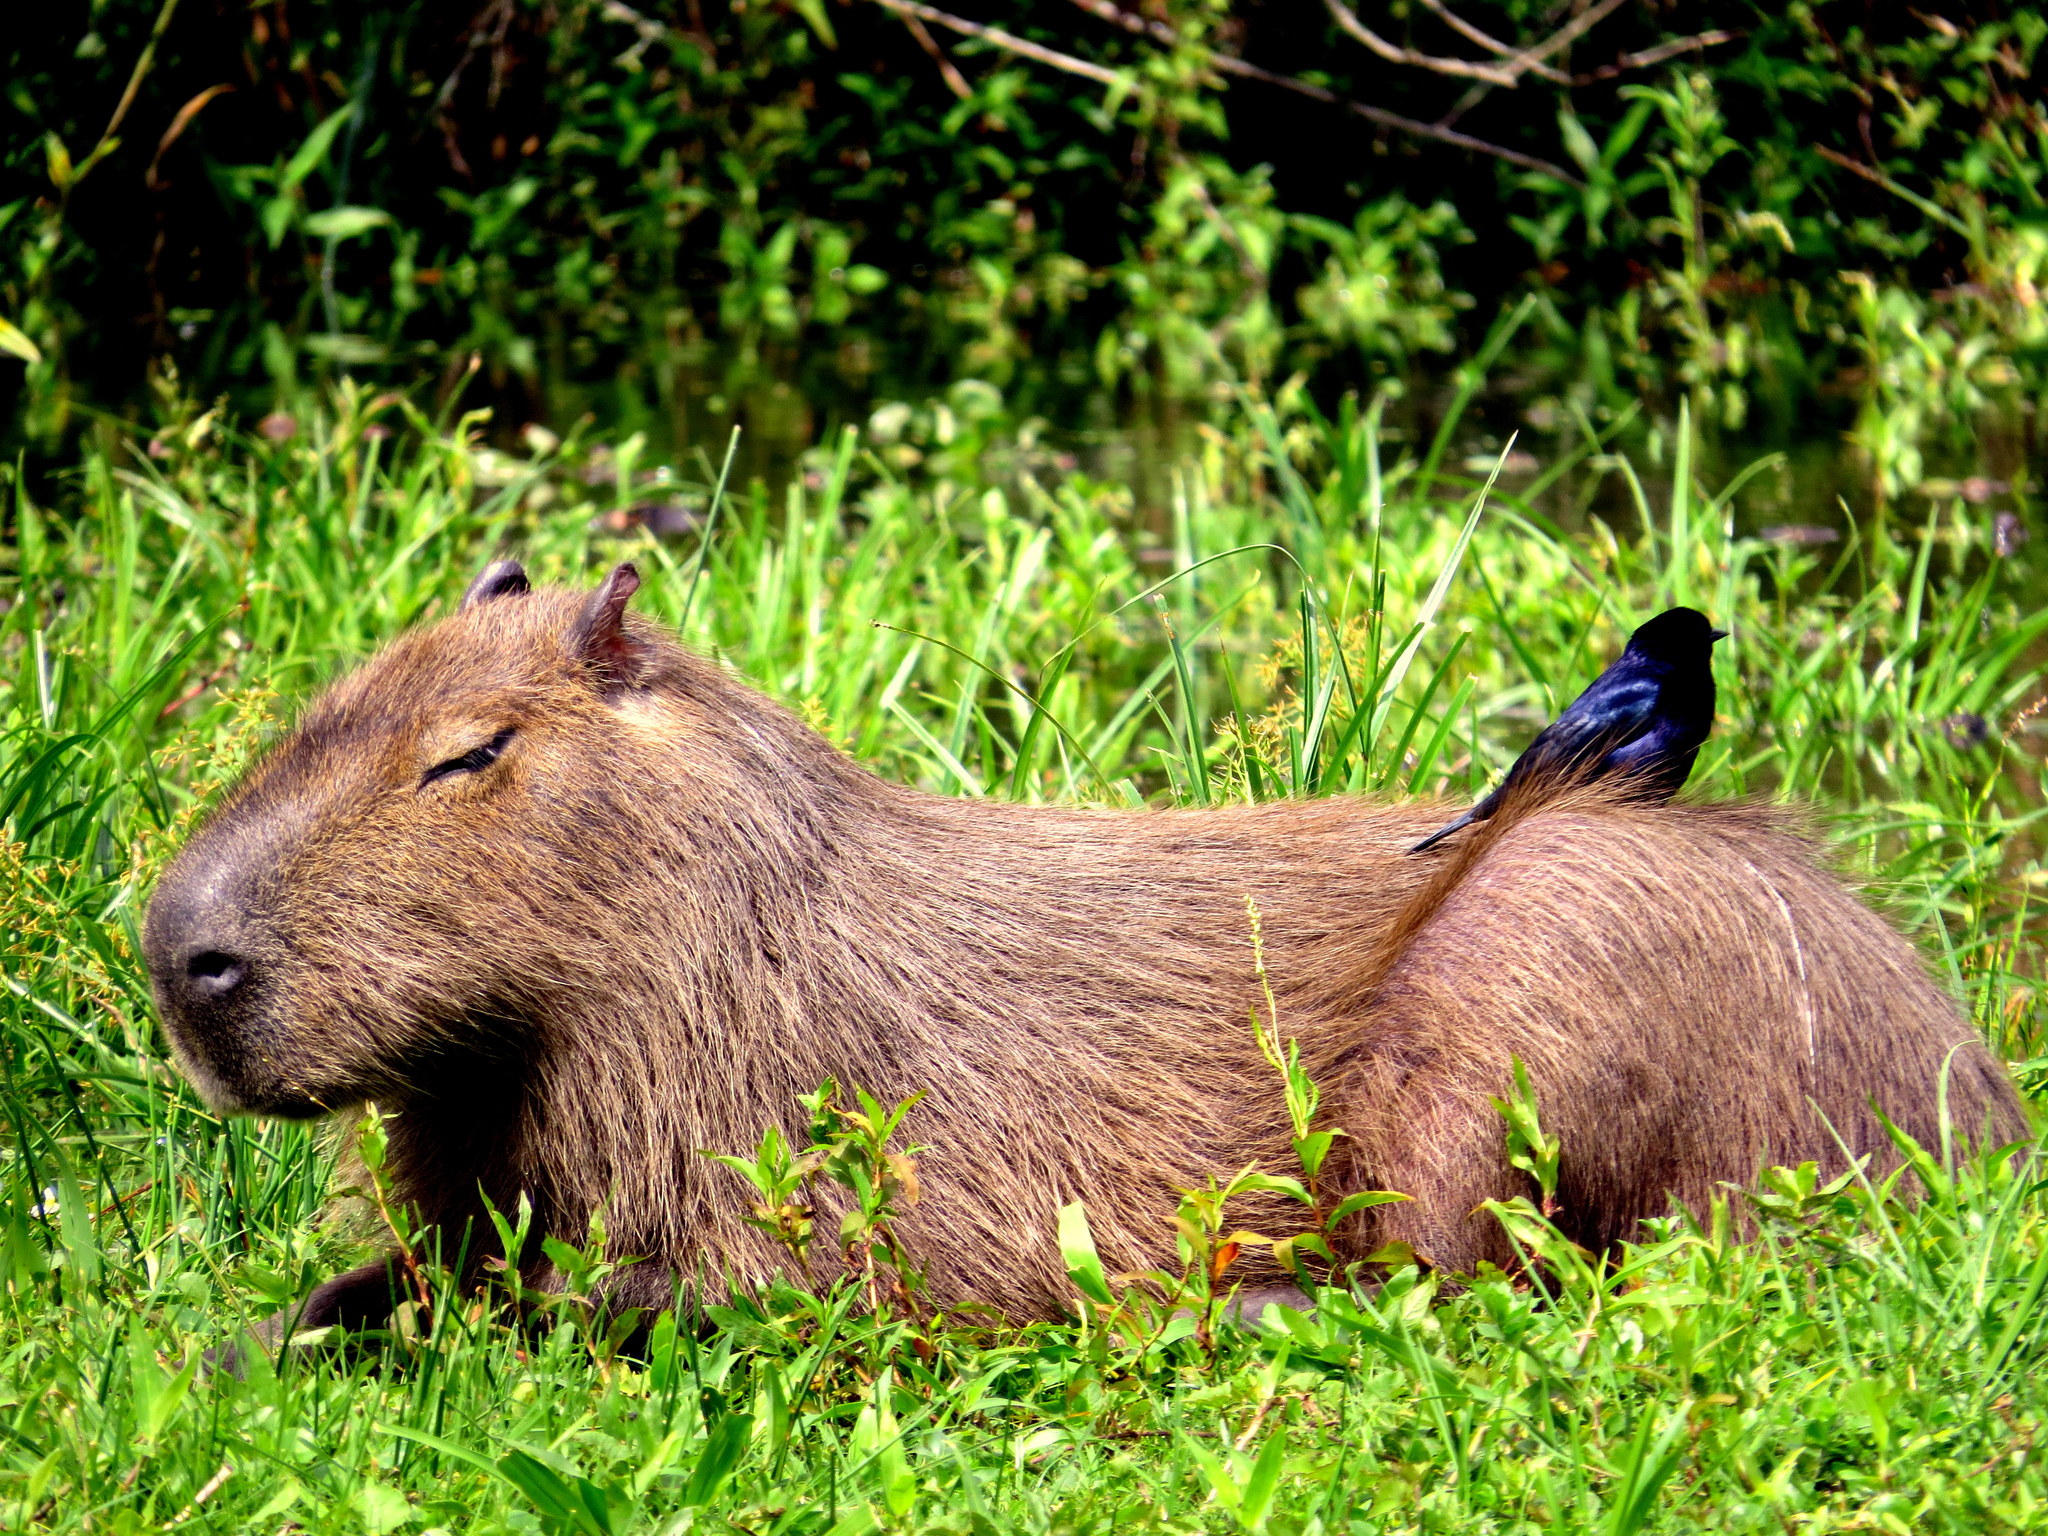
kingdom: Animalia
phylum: Chordata
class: Mammalia
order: Rodentia
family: Caviidae
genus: Hydrochoerus
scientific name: Hydrochoerus hydrochaeris
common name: Capybara
